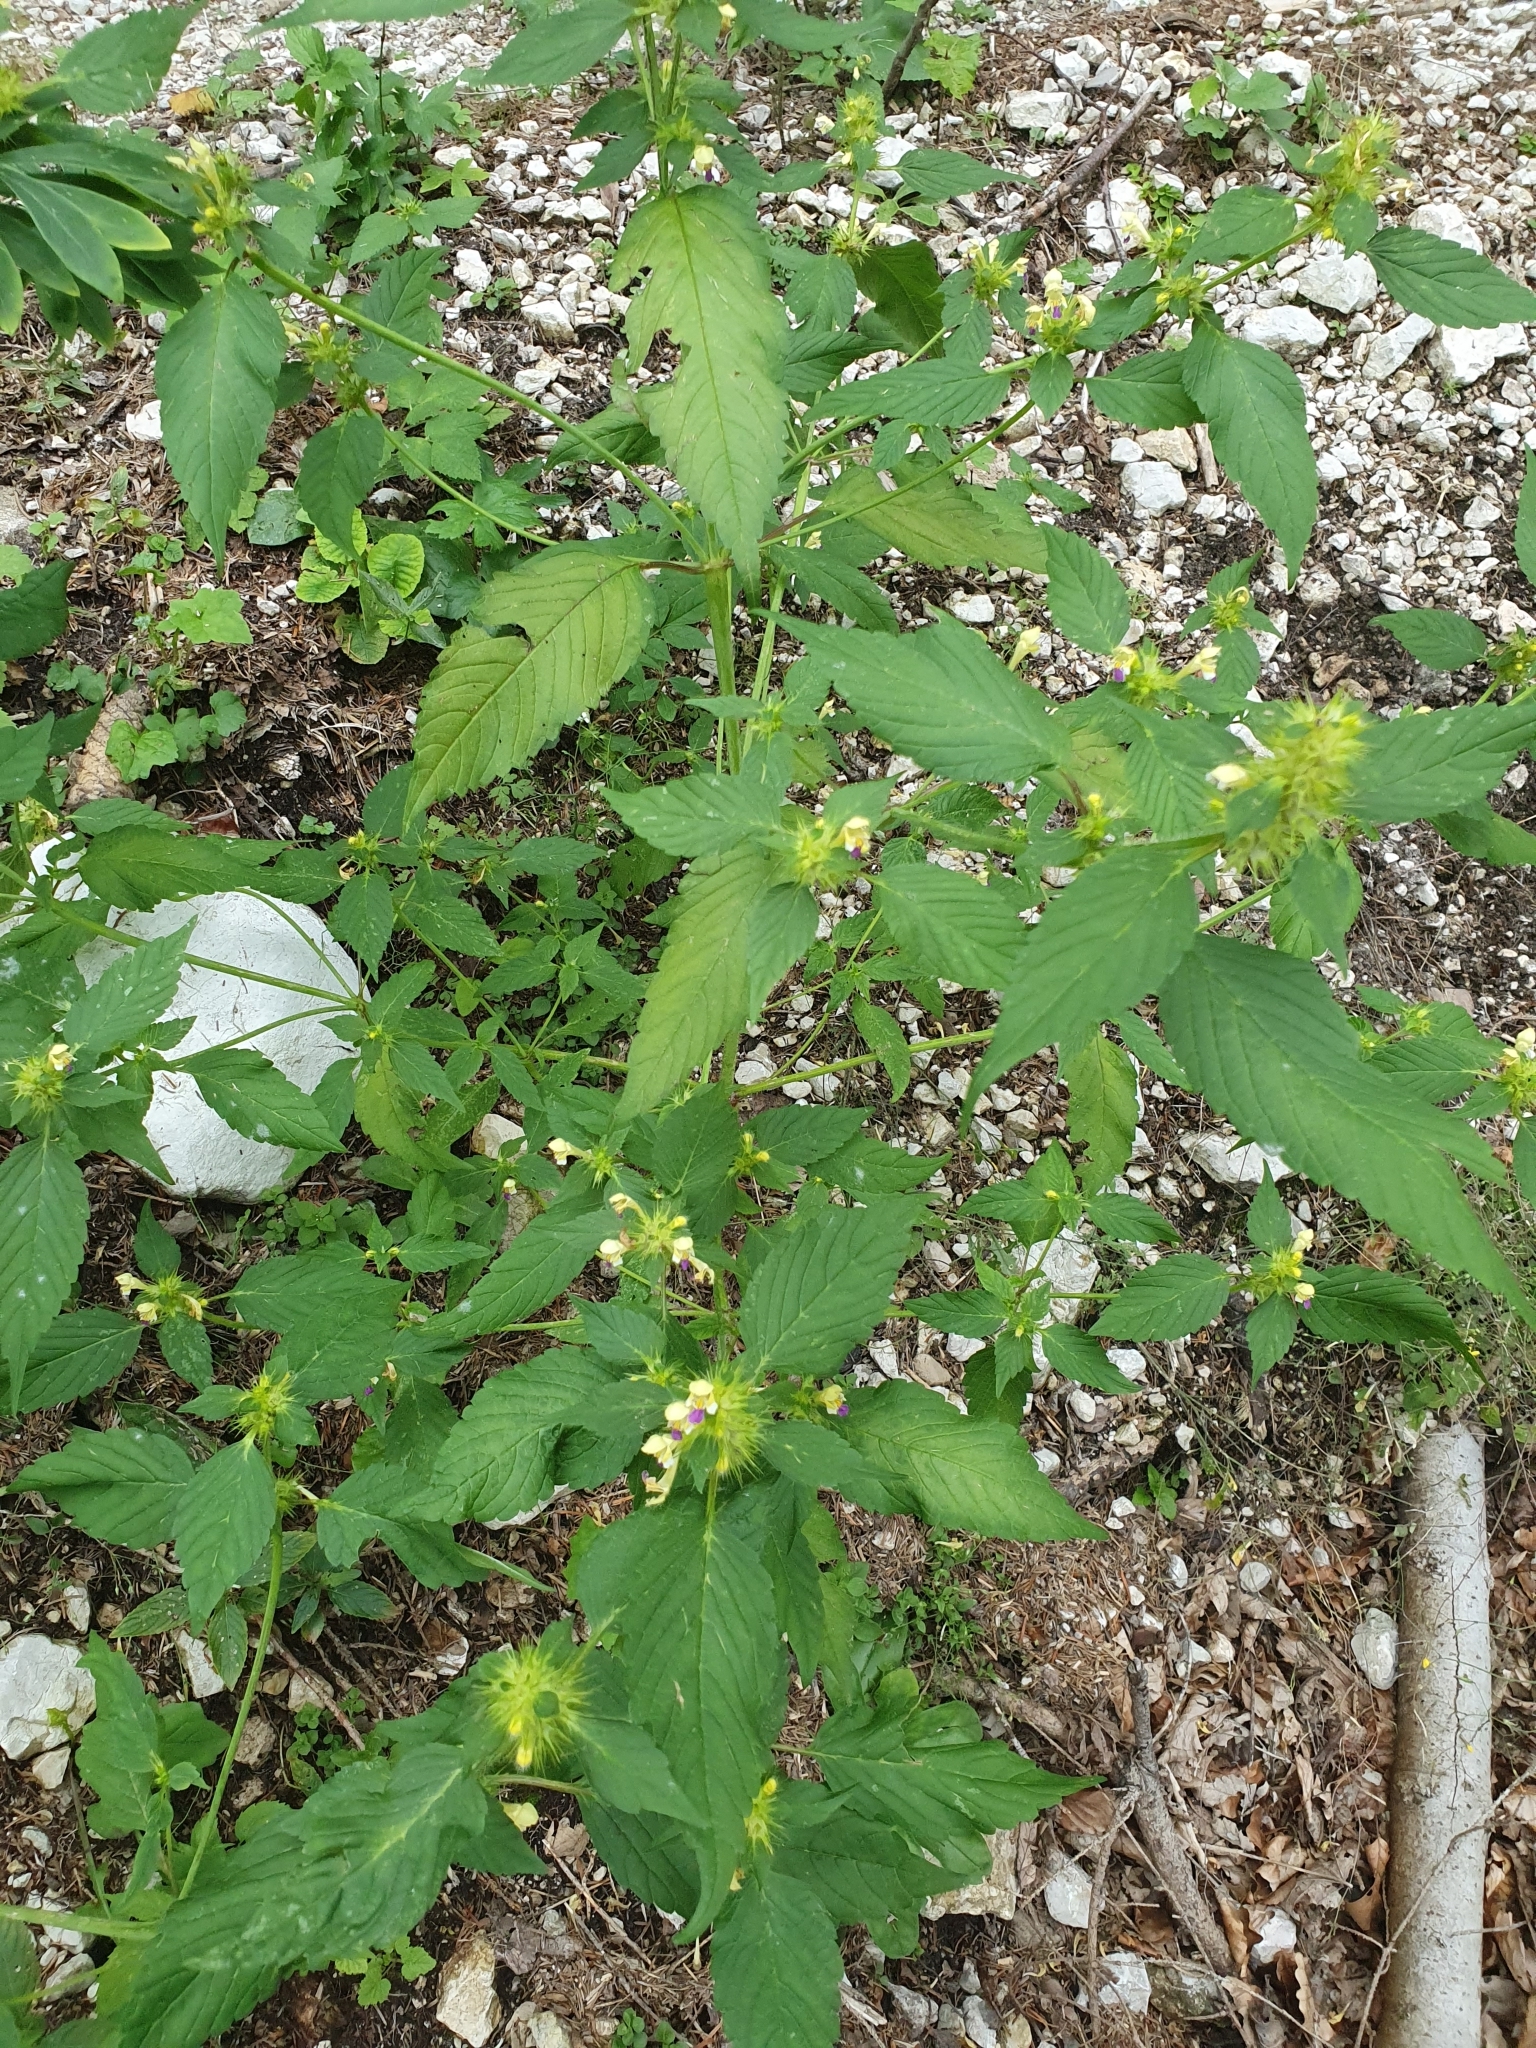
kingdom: Plantae
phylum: Tracheophyta
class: Magnoliopsida
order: Lamiales
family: Lamiaceae
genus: Galeopsis
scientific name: Galeopsis speciosa
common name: Large-flowered hemp-nettle
